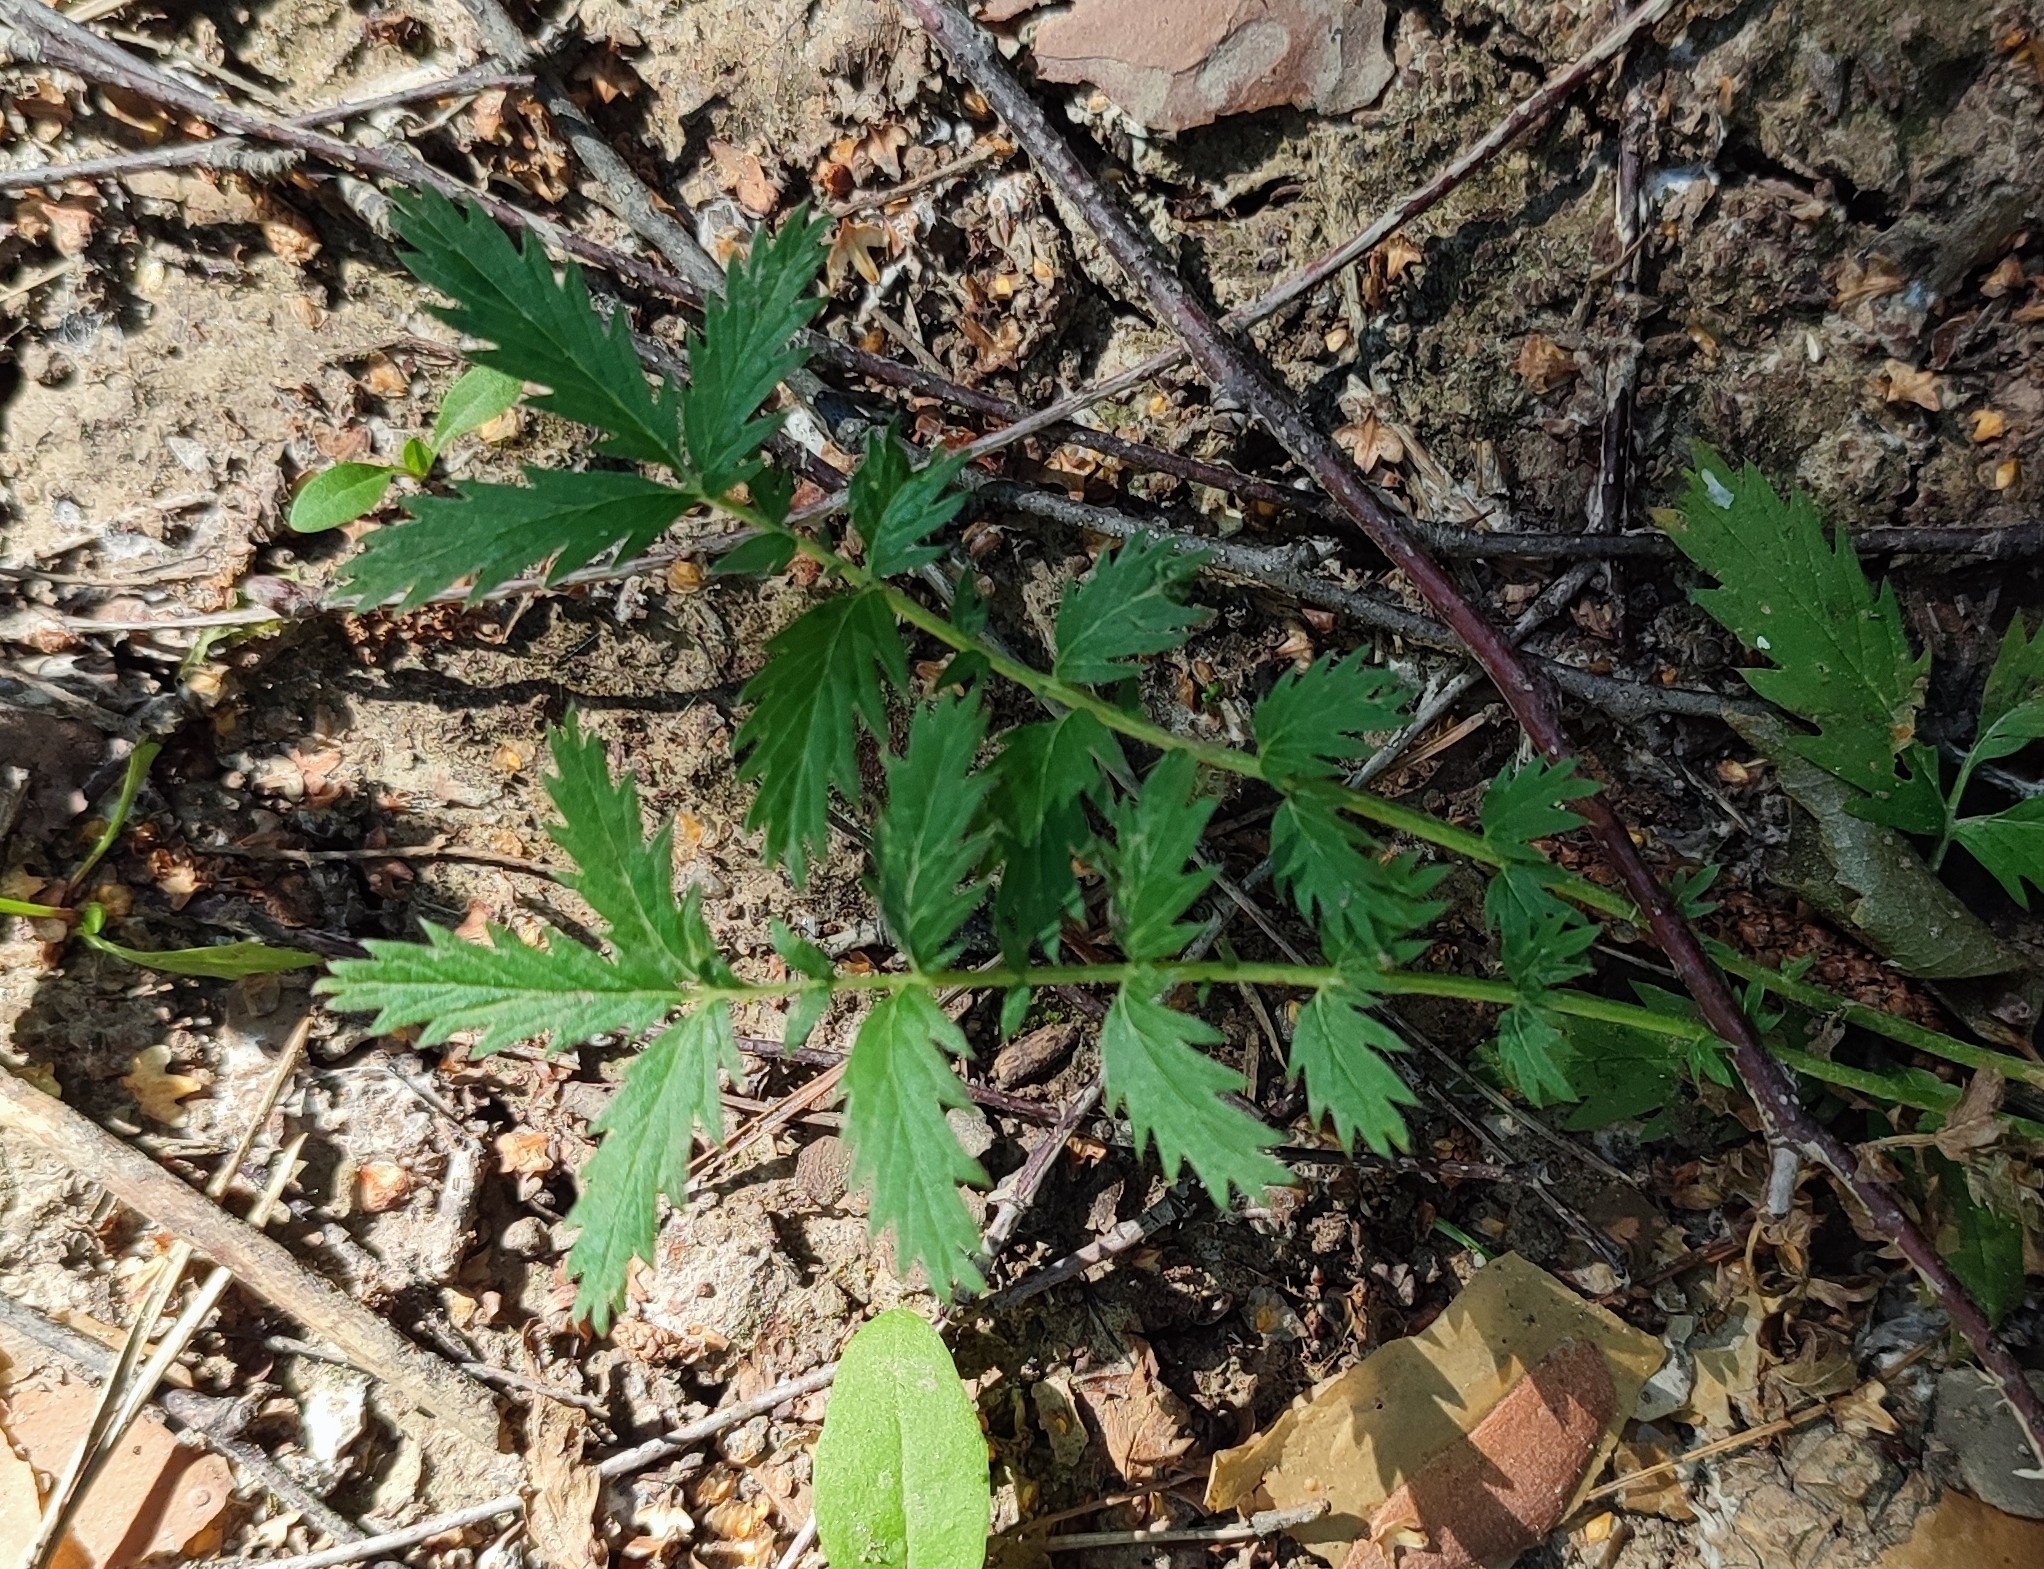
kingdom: Plantae
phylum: Tracheophyta
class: Magnoliopsida
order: Rosales
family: Rosaceae
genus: Argentina
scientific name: Argentina anserina
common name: Common silverweed
